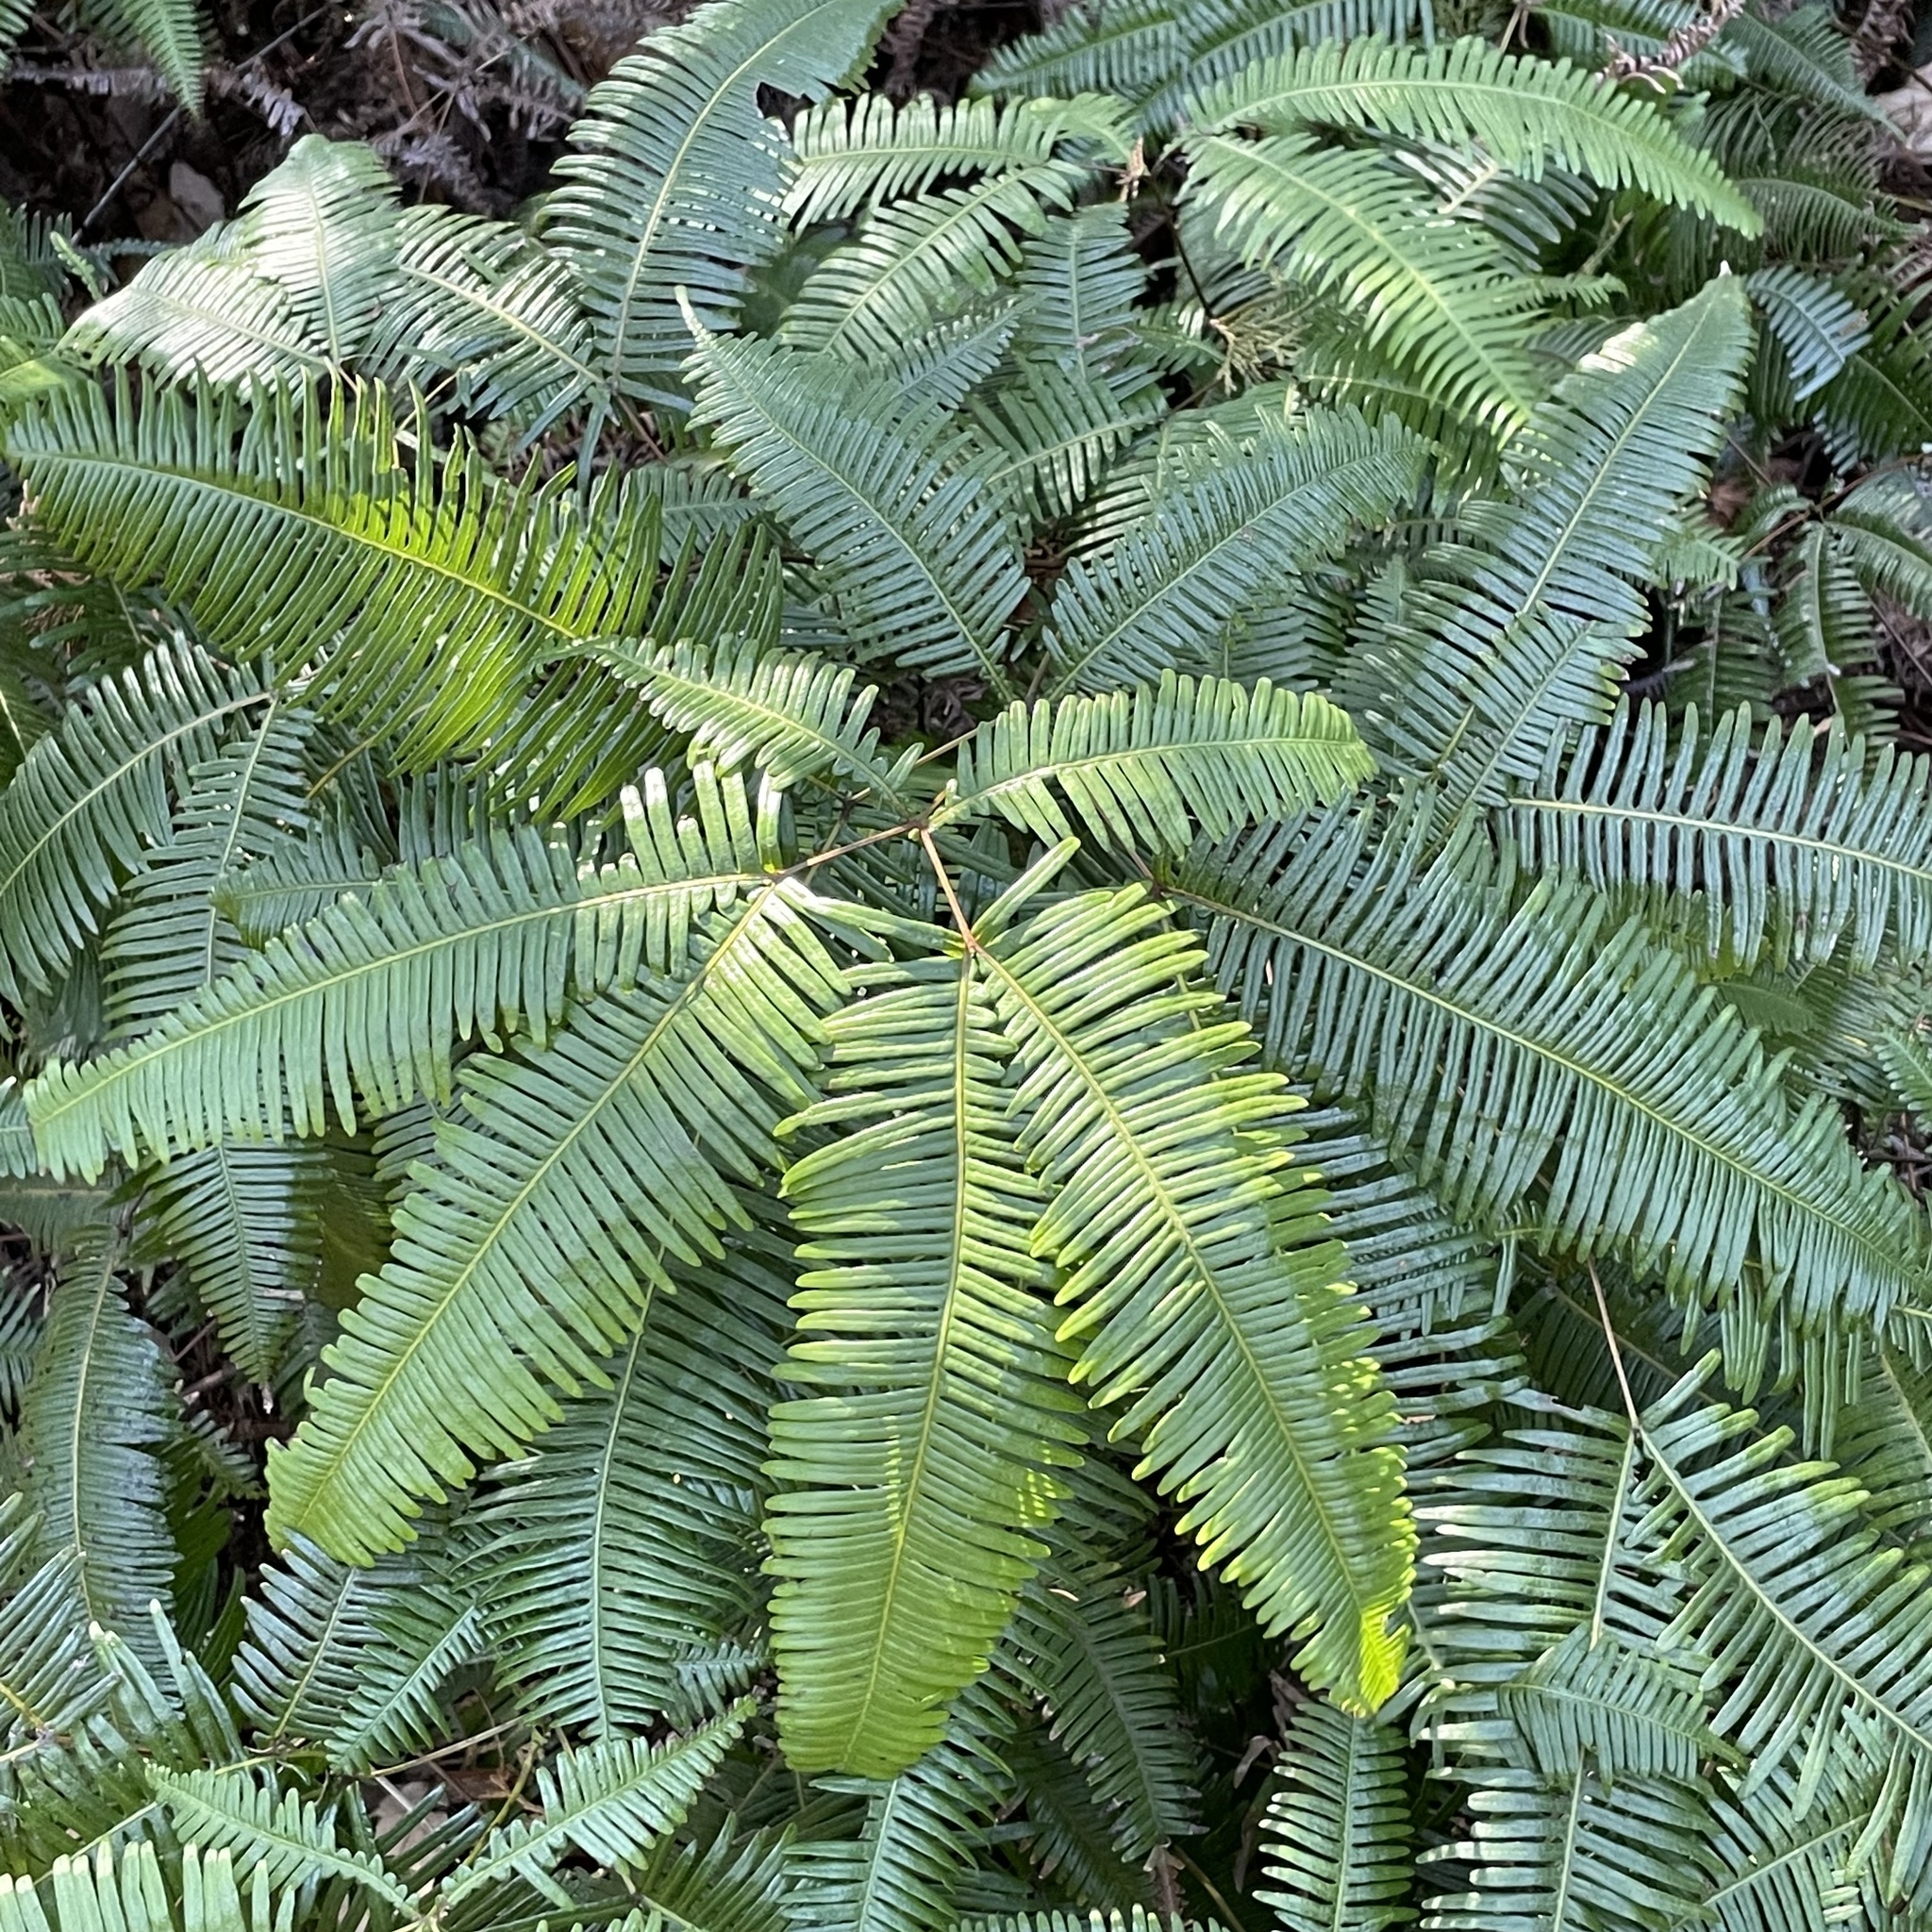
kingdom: Plantae
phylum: Tracheophyta
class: Polypodiopsida
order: Gleicheniales
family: Gleicheniaceae
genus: Dicranopteris
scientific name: Dicranopteris linearis
